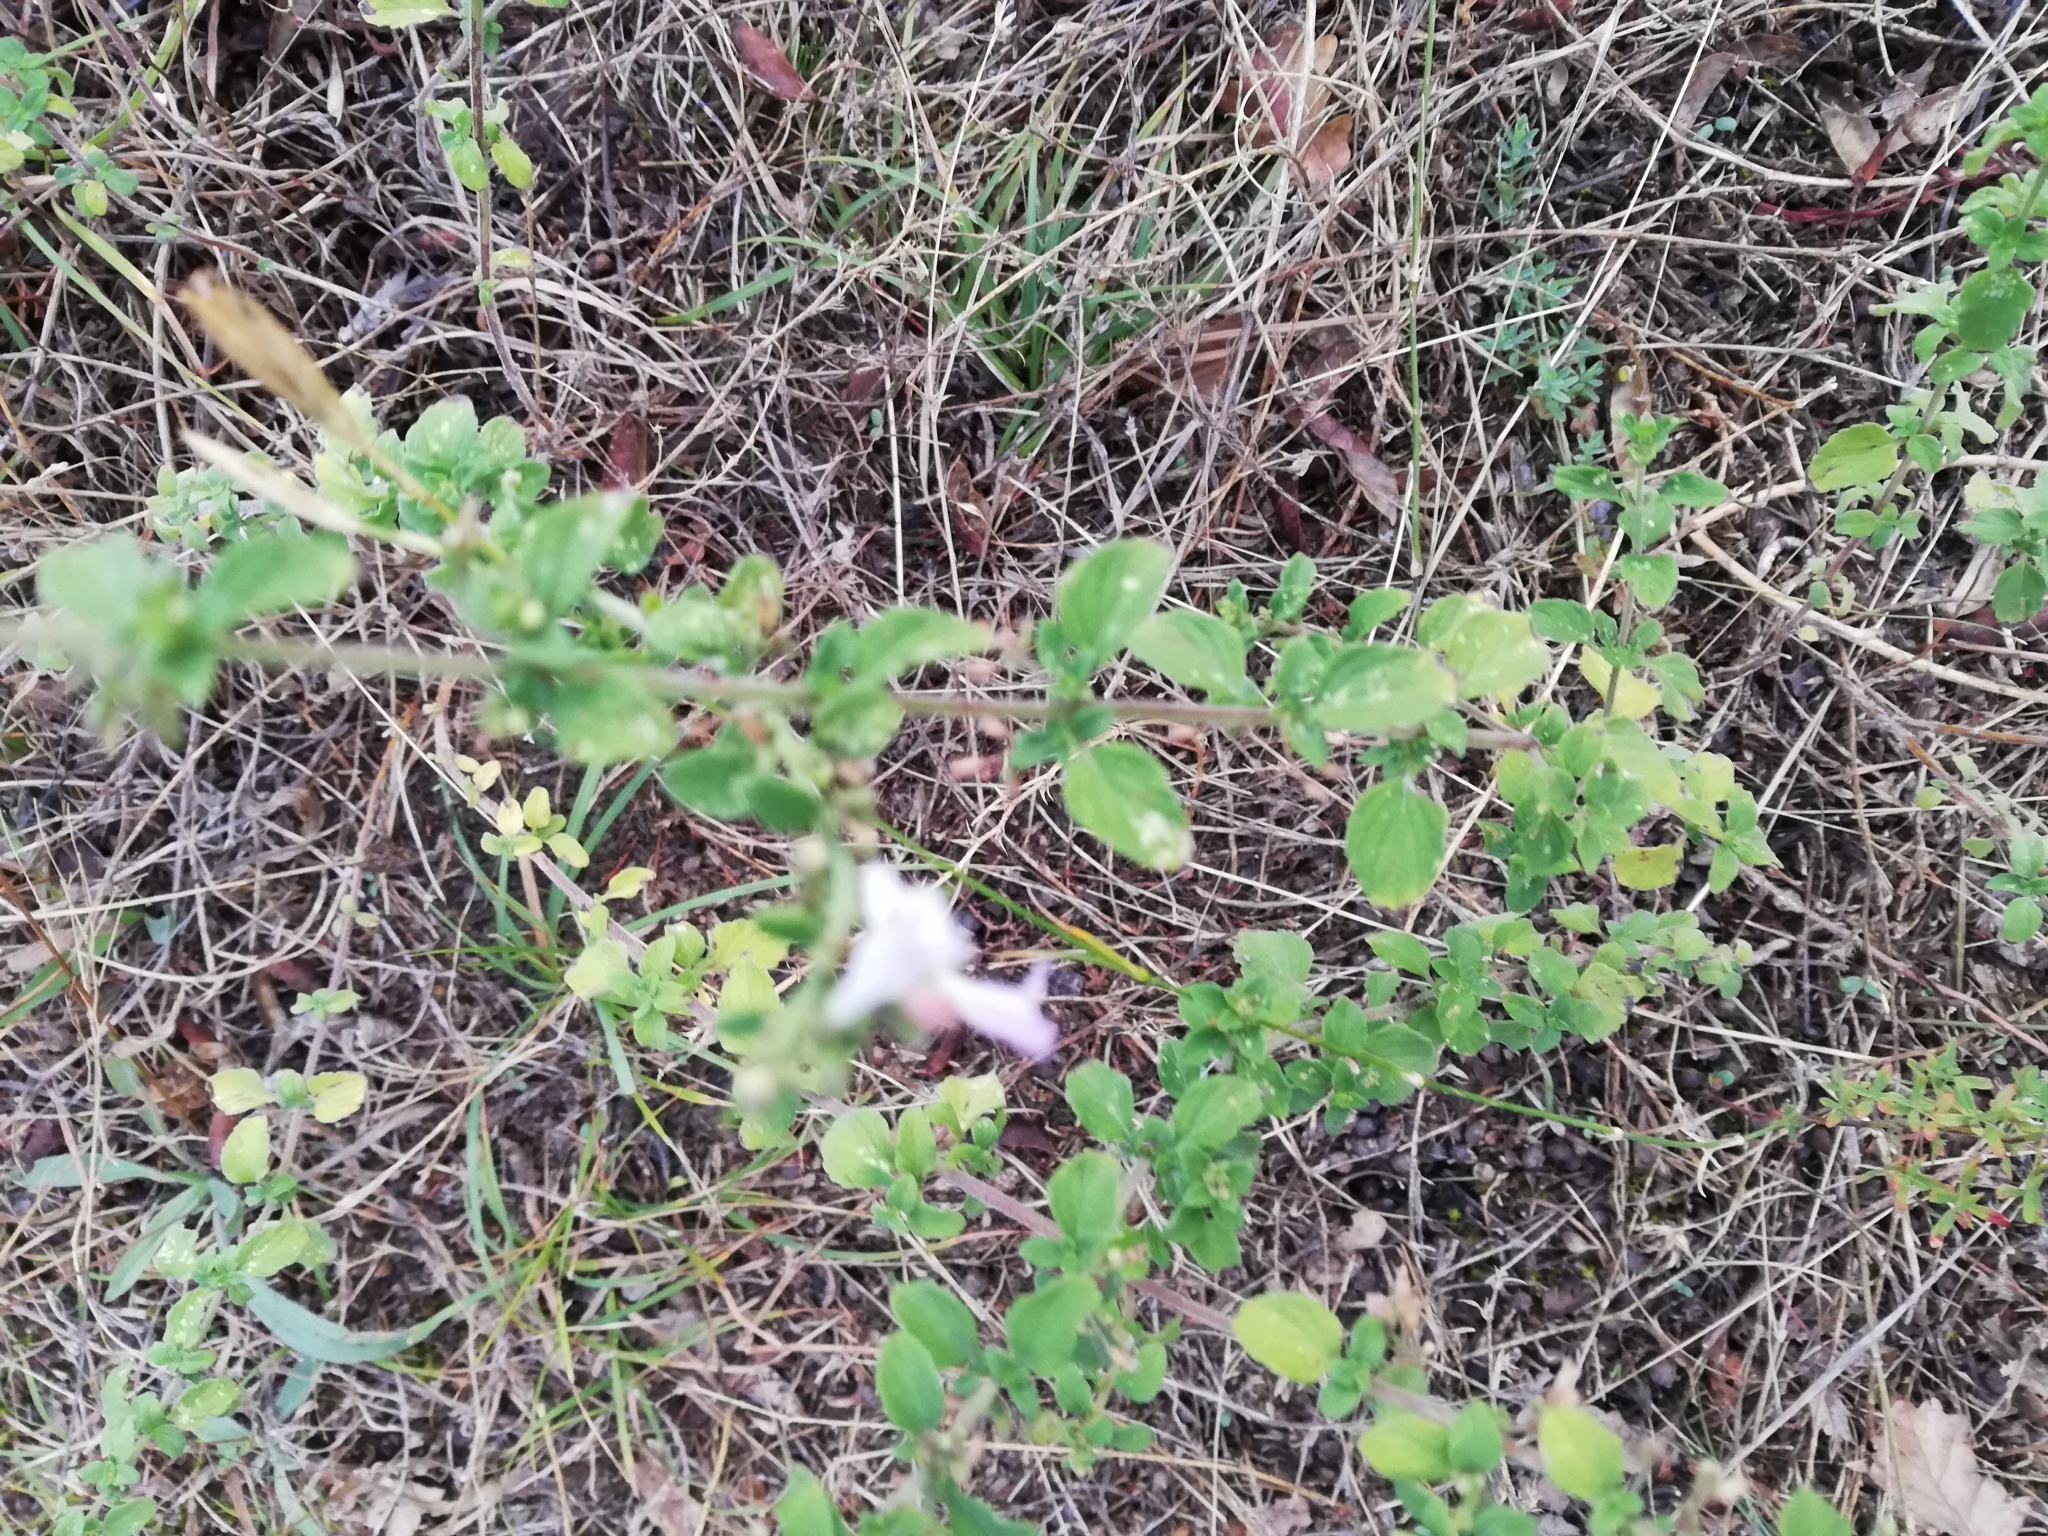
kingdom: Plantae
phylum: Tracheophyta
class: Magnoliopsida
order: Lamiales
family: Lamiaceae
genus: Clinopodium
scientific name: Clinopodium nepeta
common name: Lesser calamint
